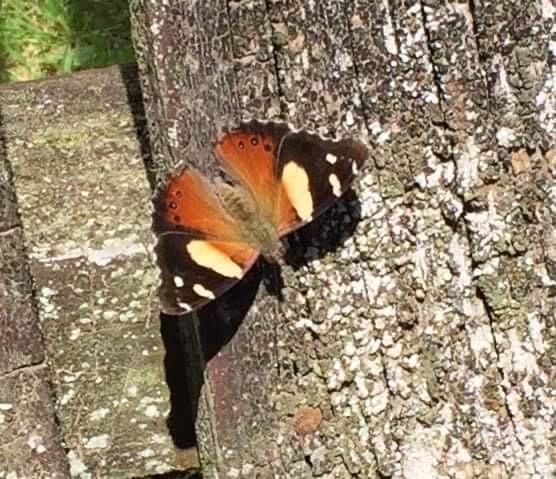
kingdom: Animalia
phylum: Arthropoda
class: Insecta
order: Lepidoptera
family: Nymphalidae
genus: Vanessa
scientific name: Vanessa itea
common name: Yellow admiral
